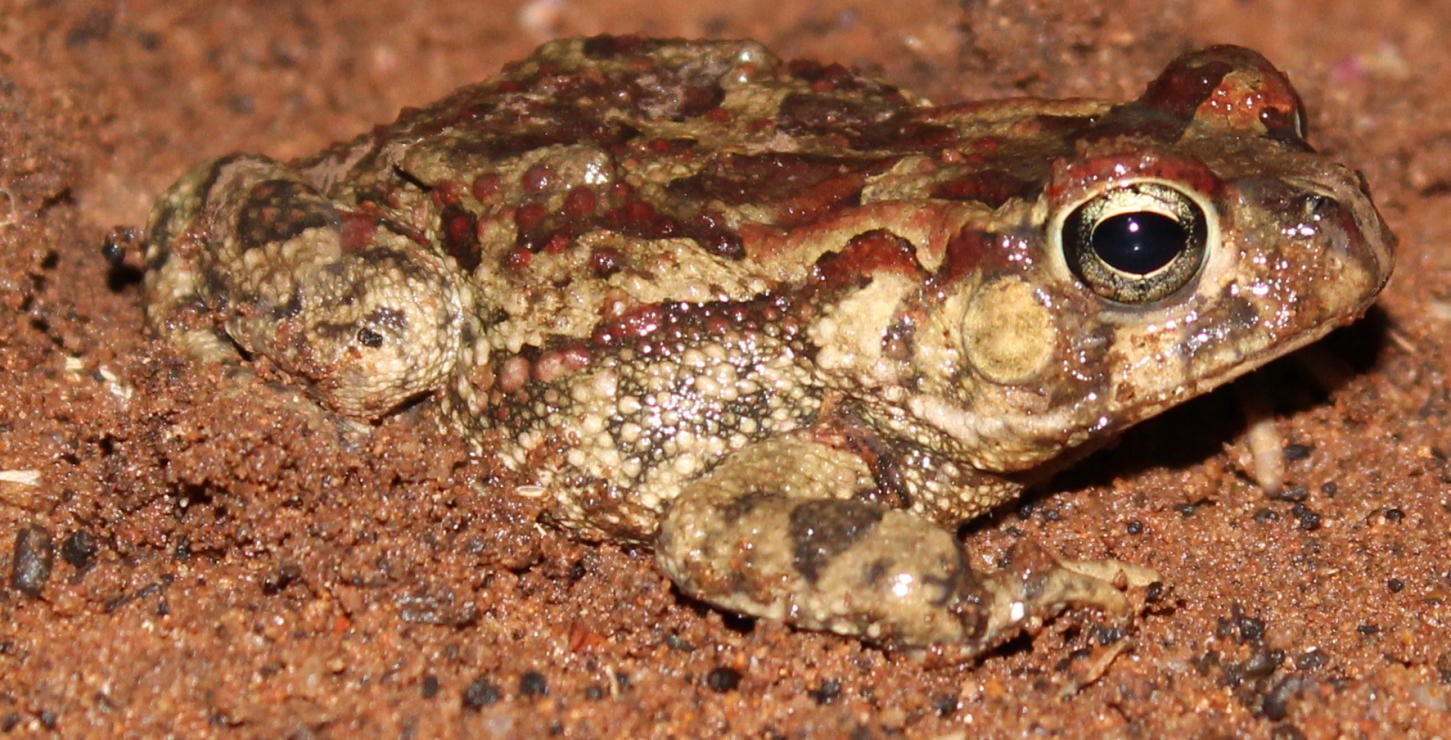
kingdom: Animalia
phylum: Chordata
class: Amphibia
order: Anura
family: Bufonidae
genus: Sclerophrys
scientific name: Sclerophrys garmani
